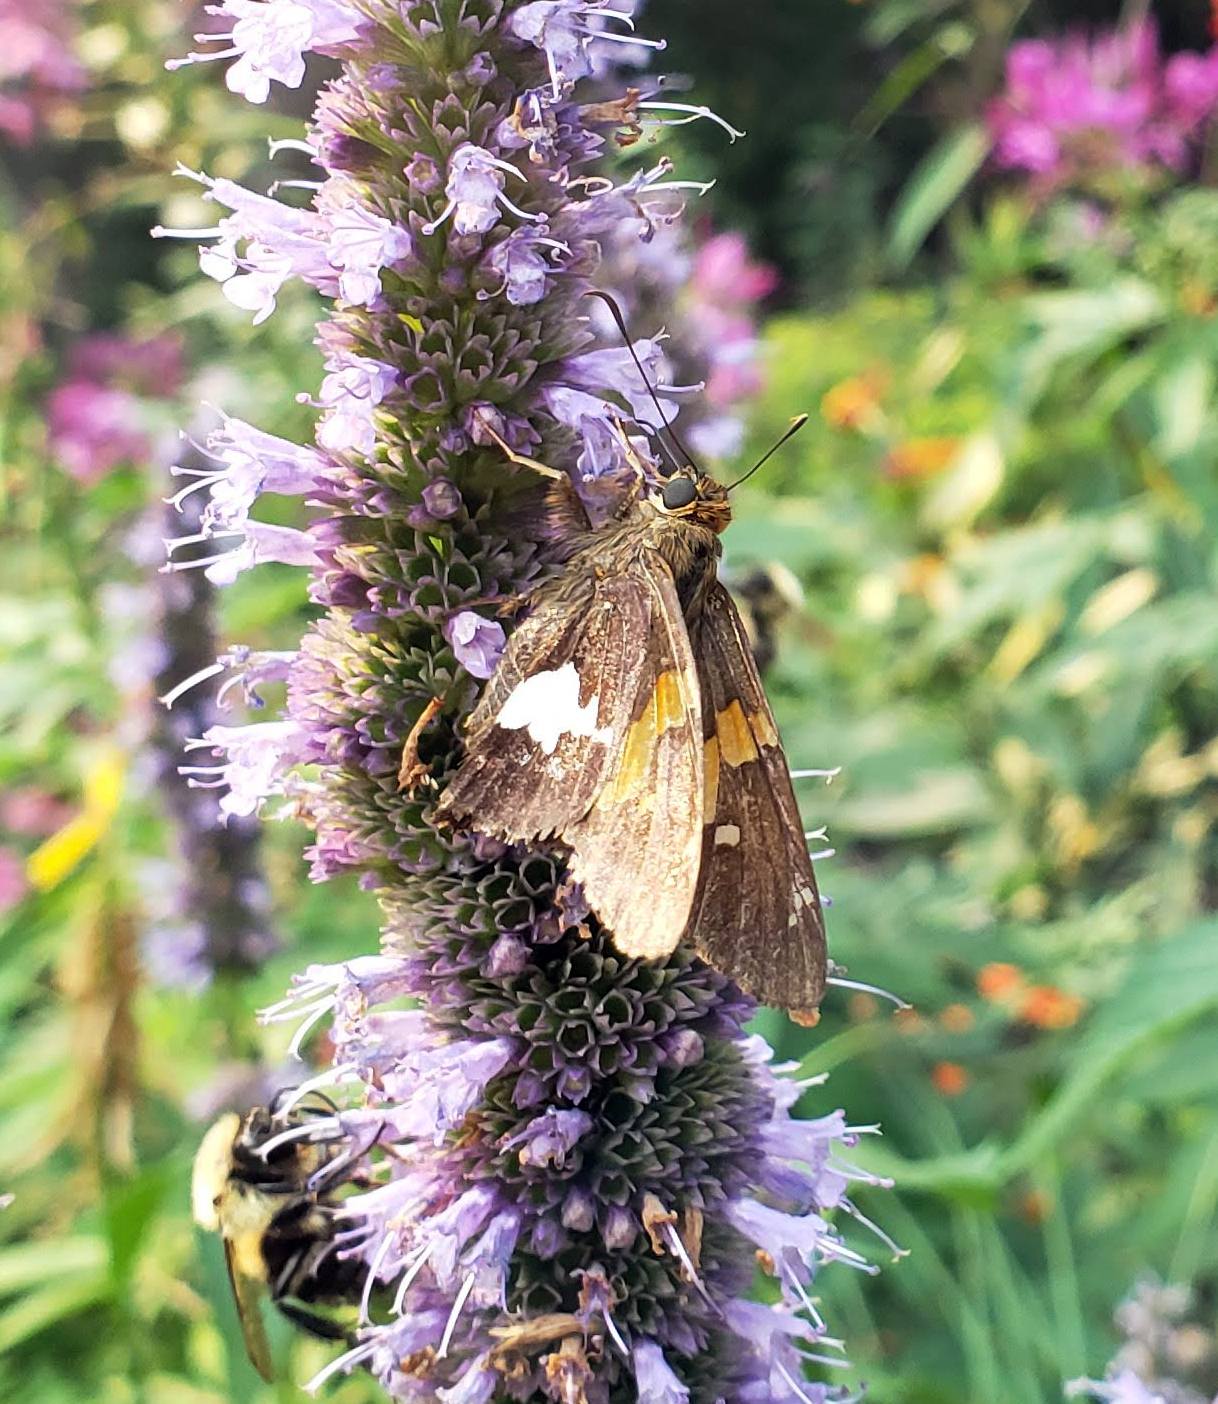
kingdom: Animalia
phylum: Arthropoda
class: Insecta
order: Lepidoptera
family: Hesperiidae
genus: Epargyreus
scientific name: Epargyreus clarus
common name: Silver-spotted skipper
